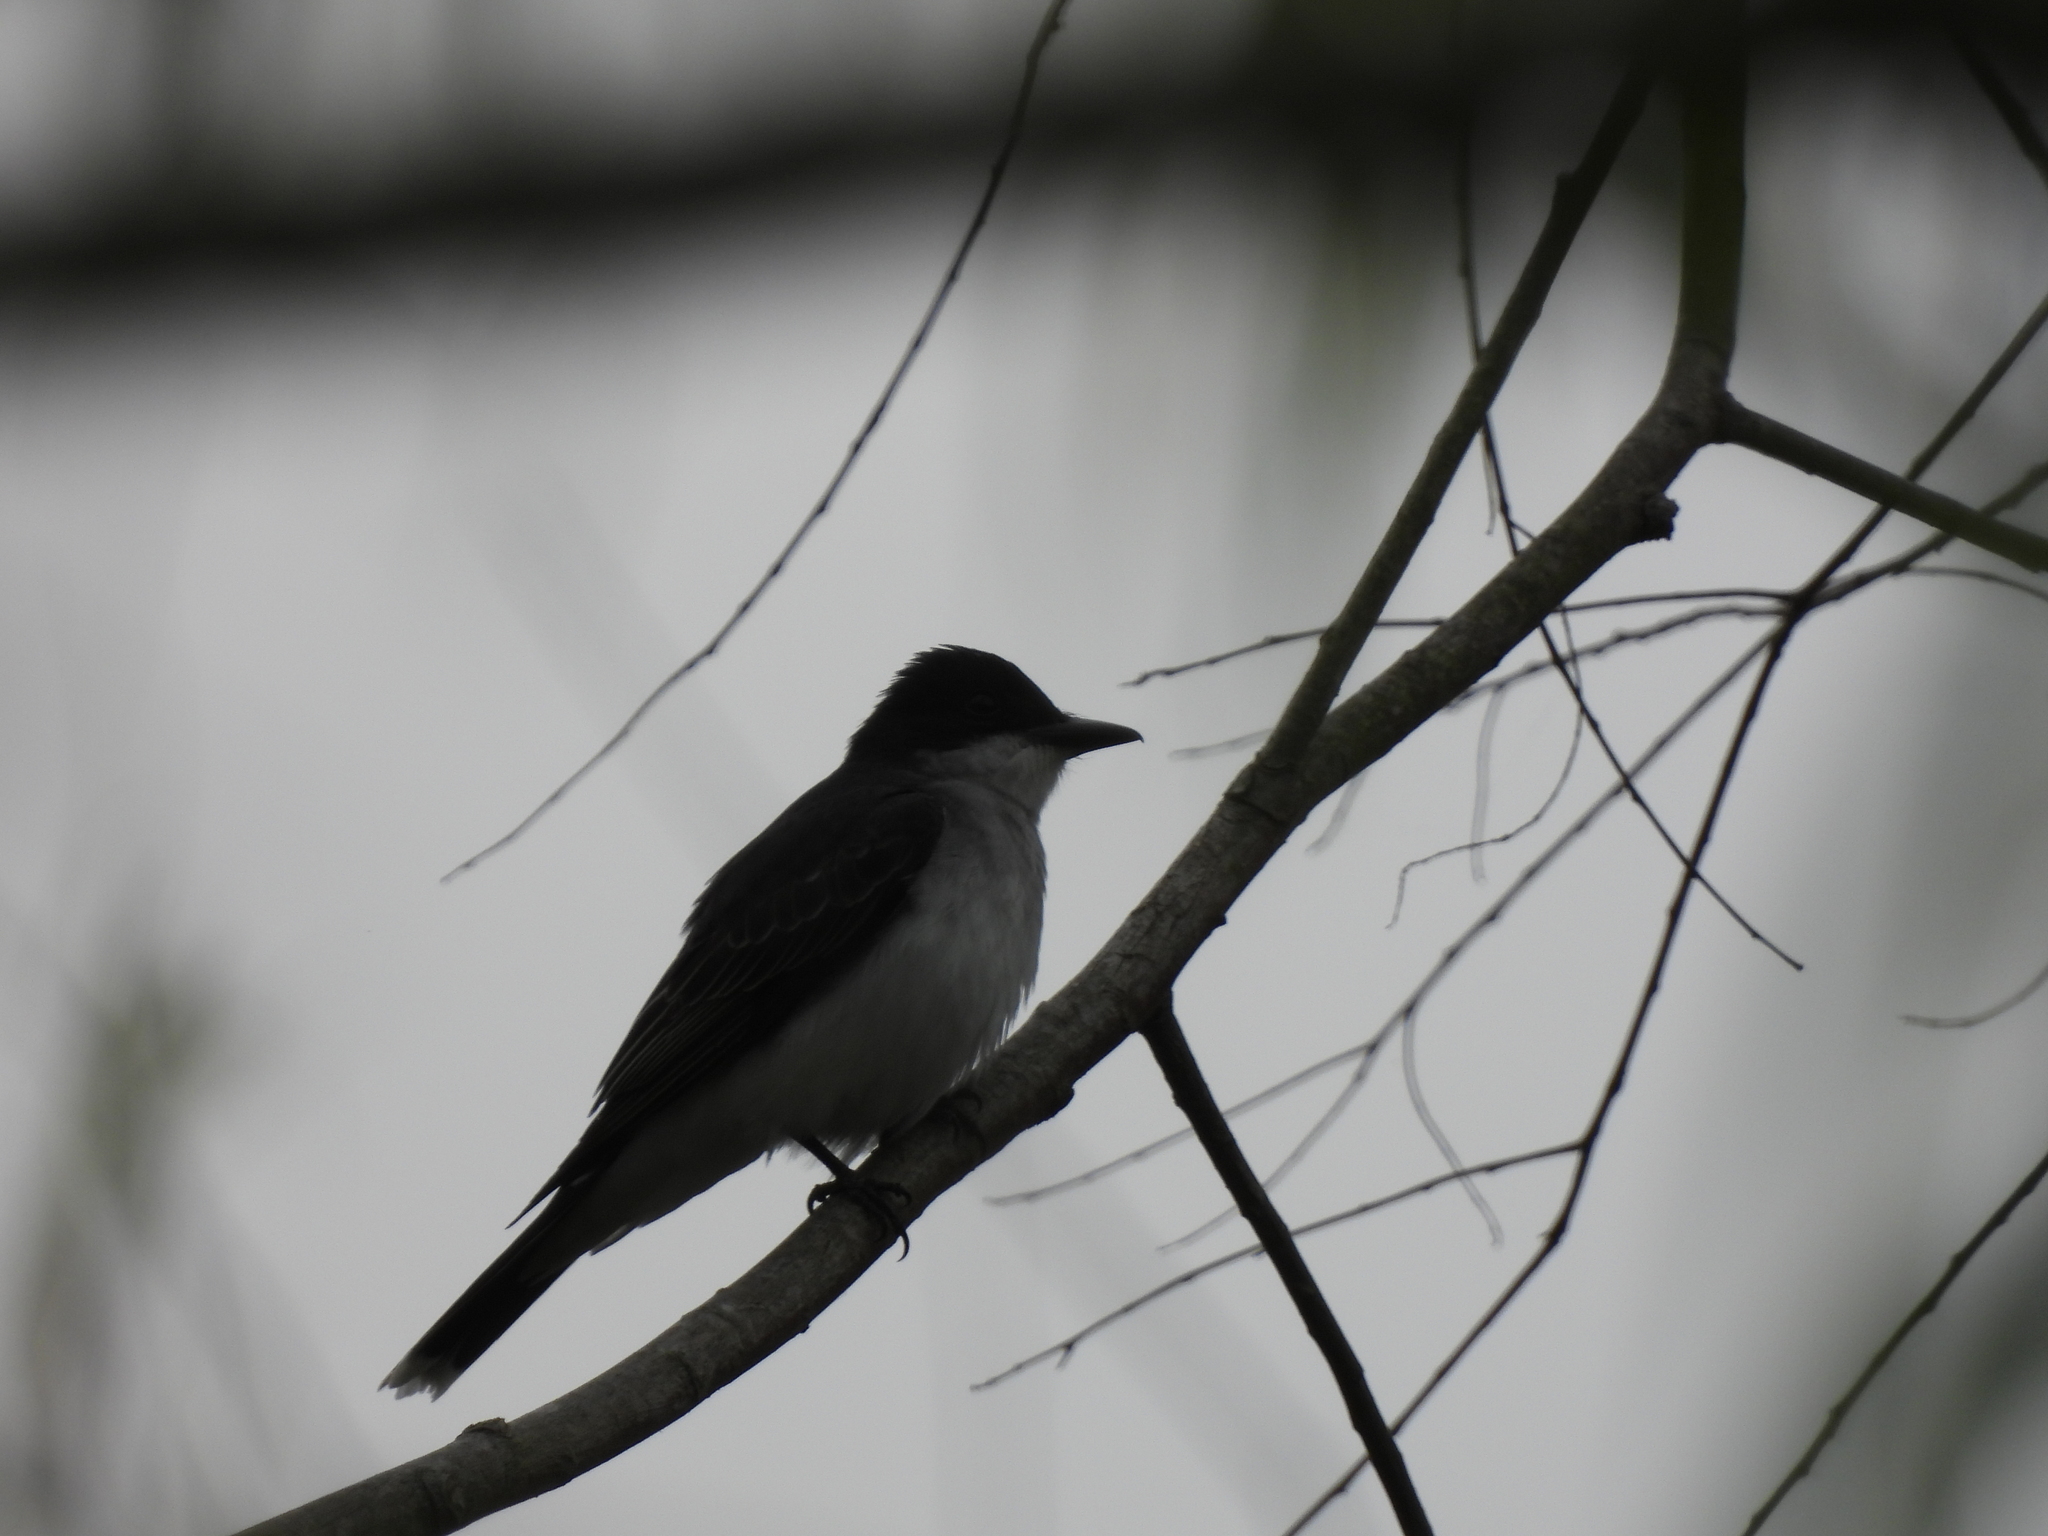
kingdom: Animalia
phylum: Chordata
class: Aves
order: Passeriformes
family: Tyrannidae
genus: Tyrannus
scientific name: Tyrannus tyrannus
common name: Eastern kingbird
